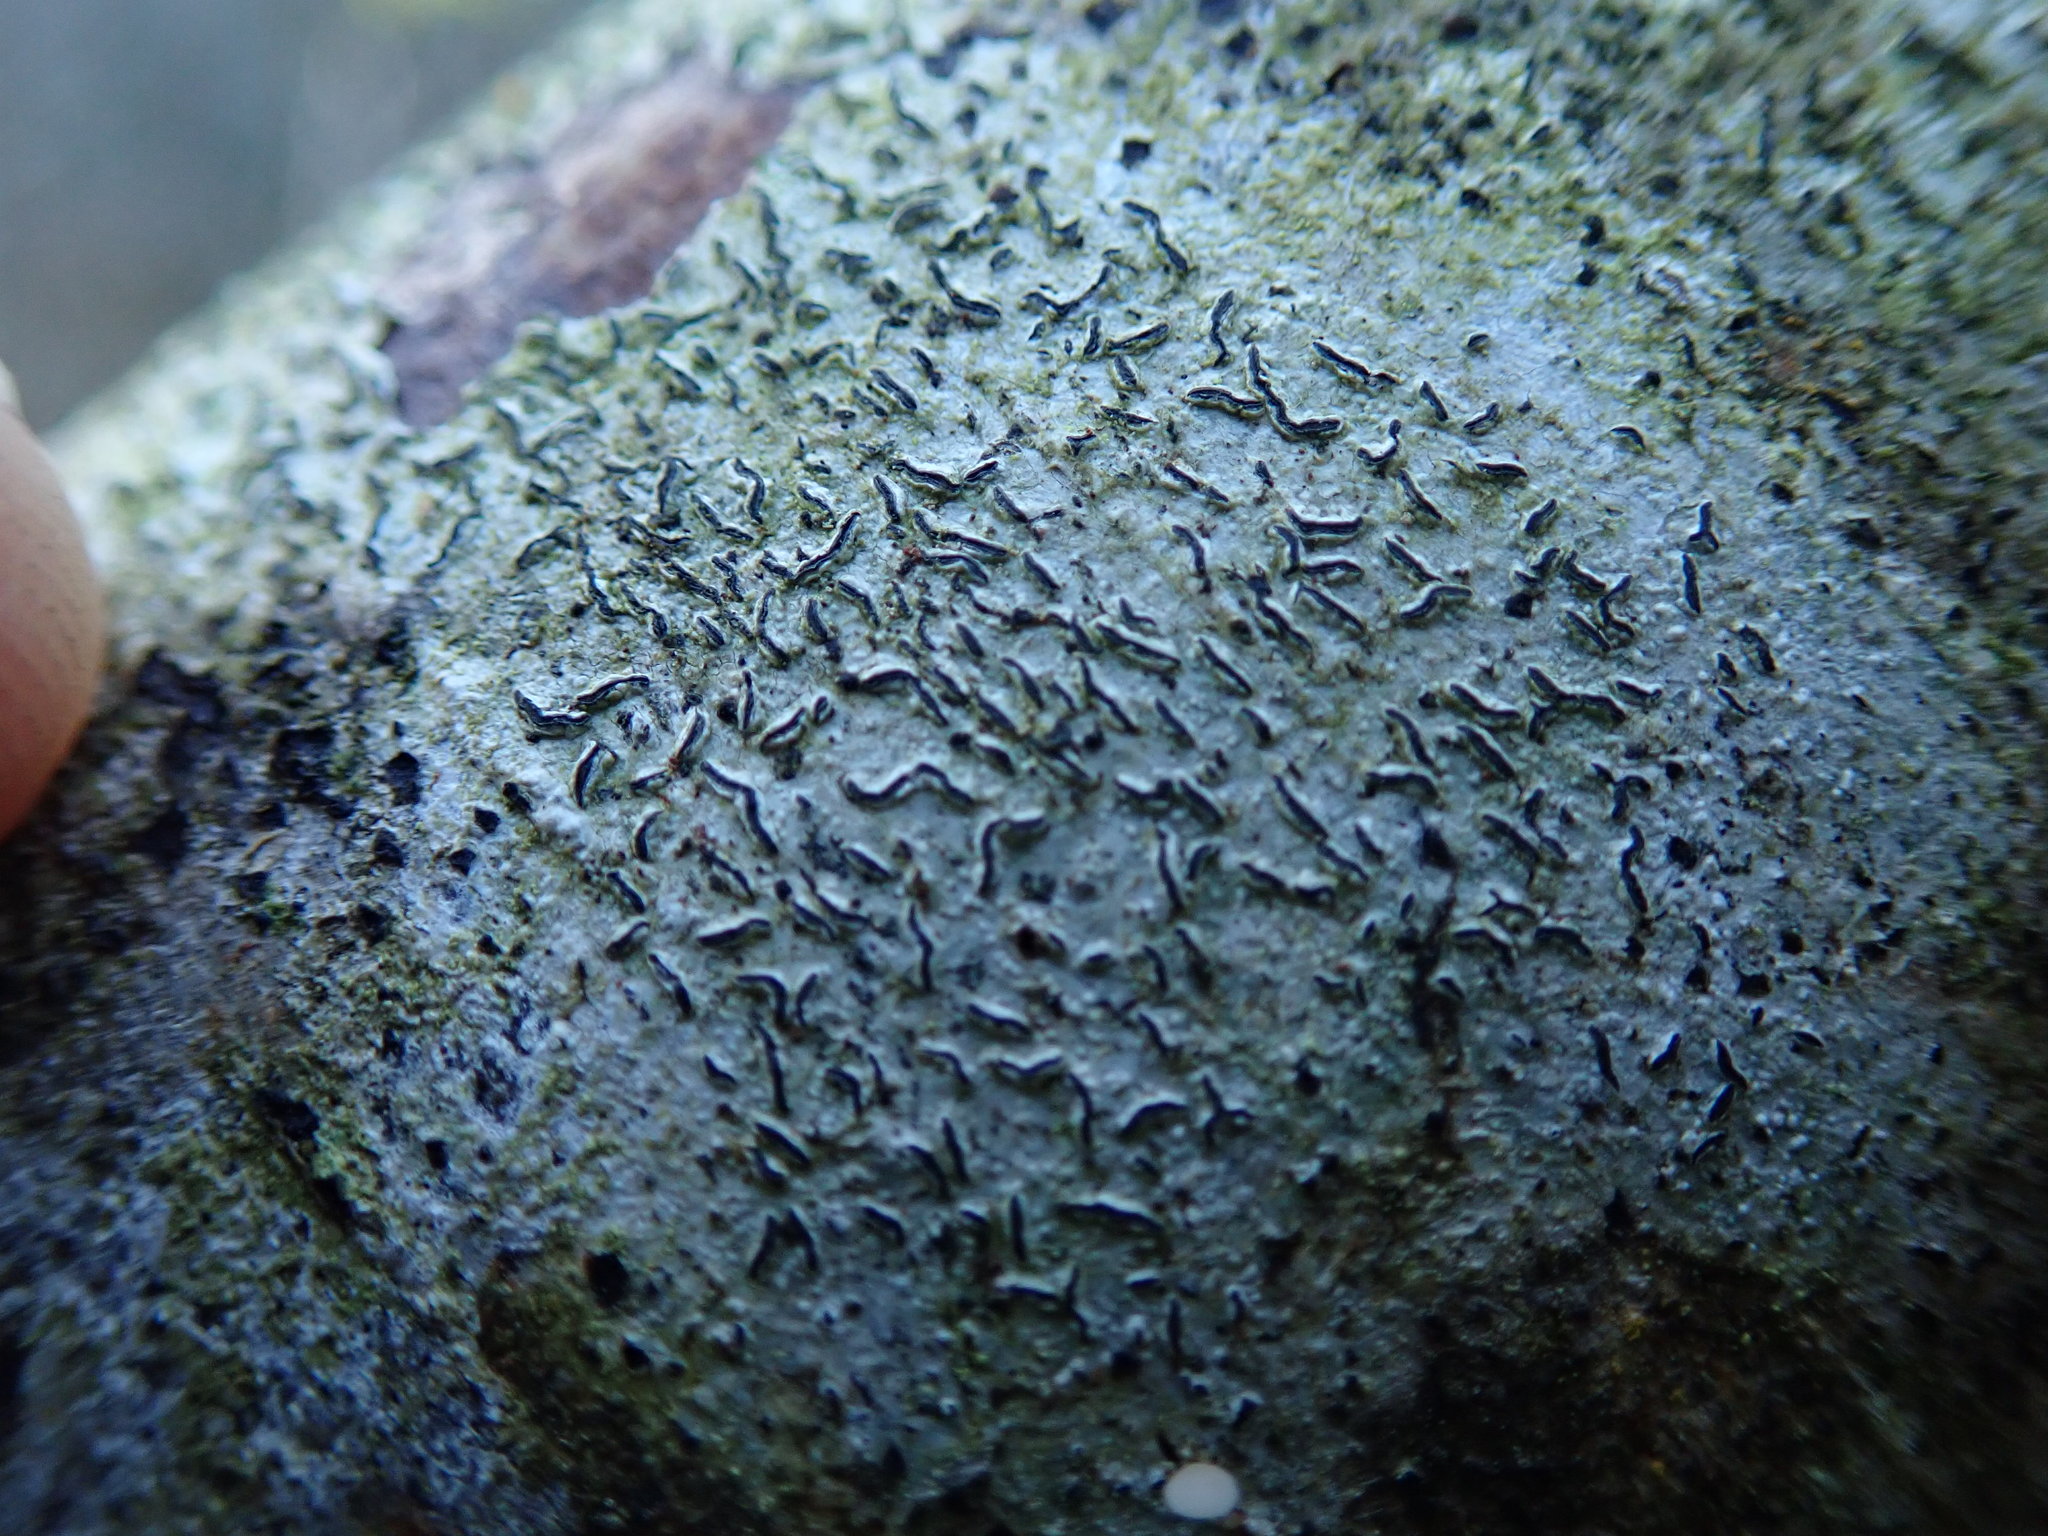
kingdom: Fungi
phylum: Ascomycota
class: Lecanoromycetes
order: Ostropales
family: Graphidaceae
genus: Graphis
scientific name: Graphis scripta
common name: Script lichen
